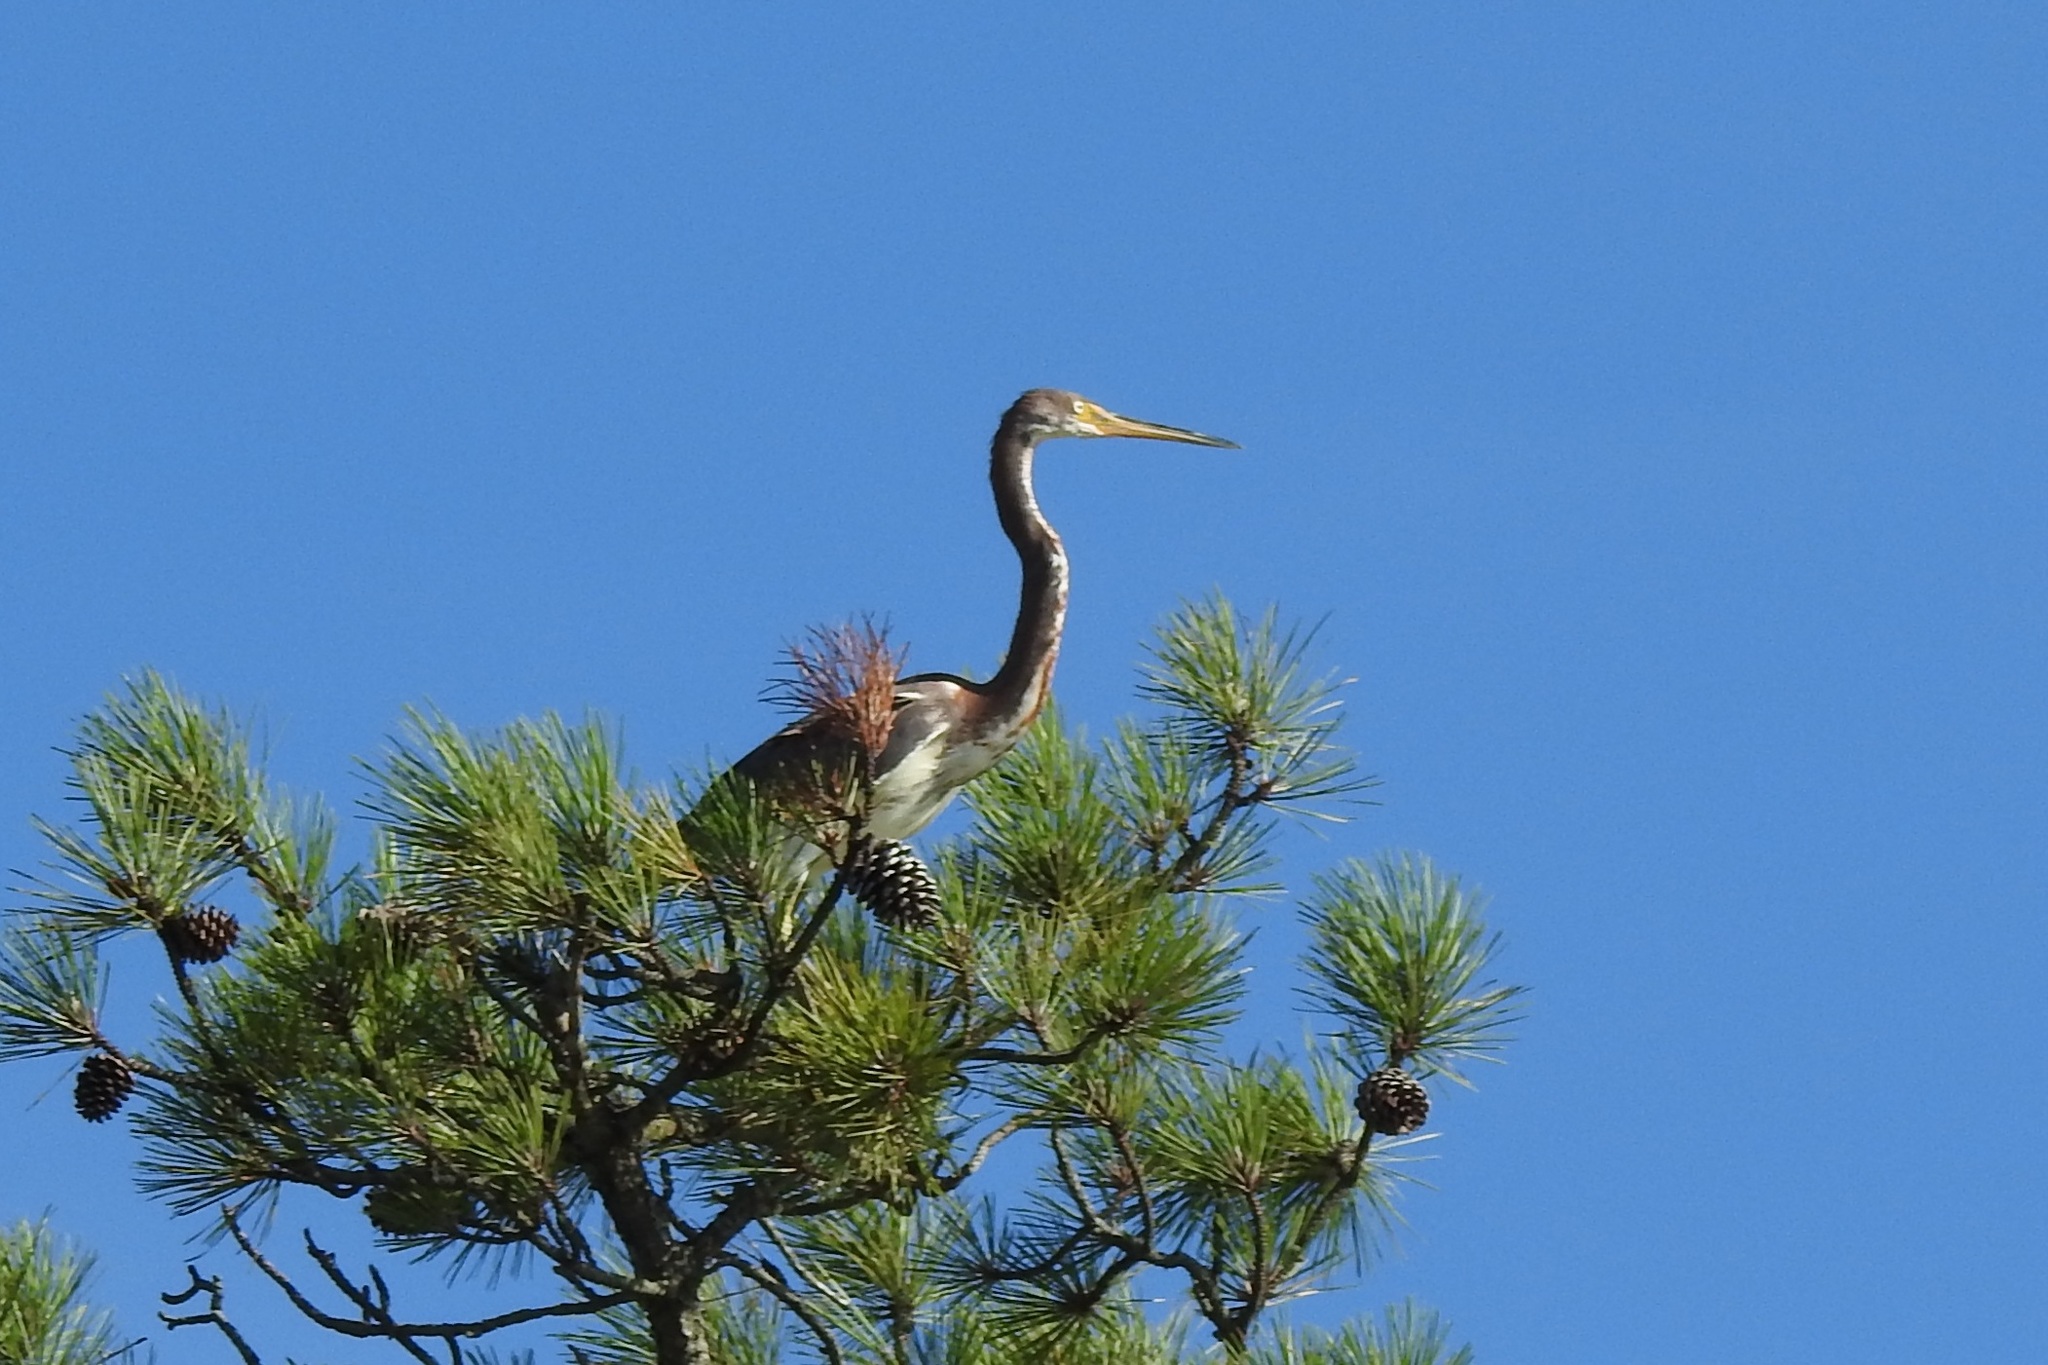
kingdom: Animalia
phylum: Chordata
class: Aves
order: Pelecaniformes
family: Ardeidae
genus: Egretta
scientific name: Egretta tricolor
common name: Tricolored heron
